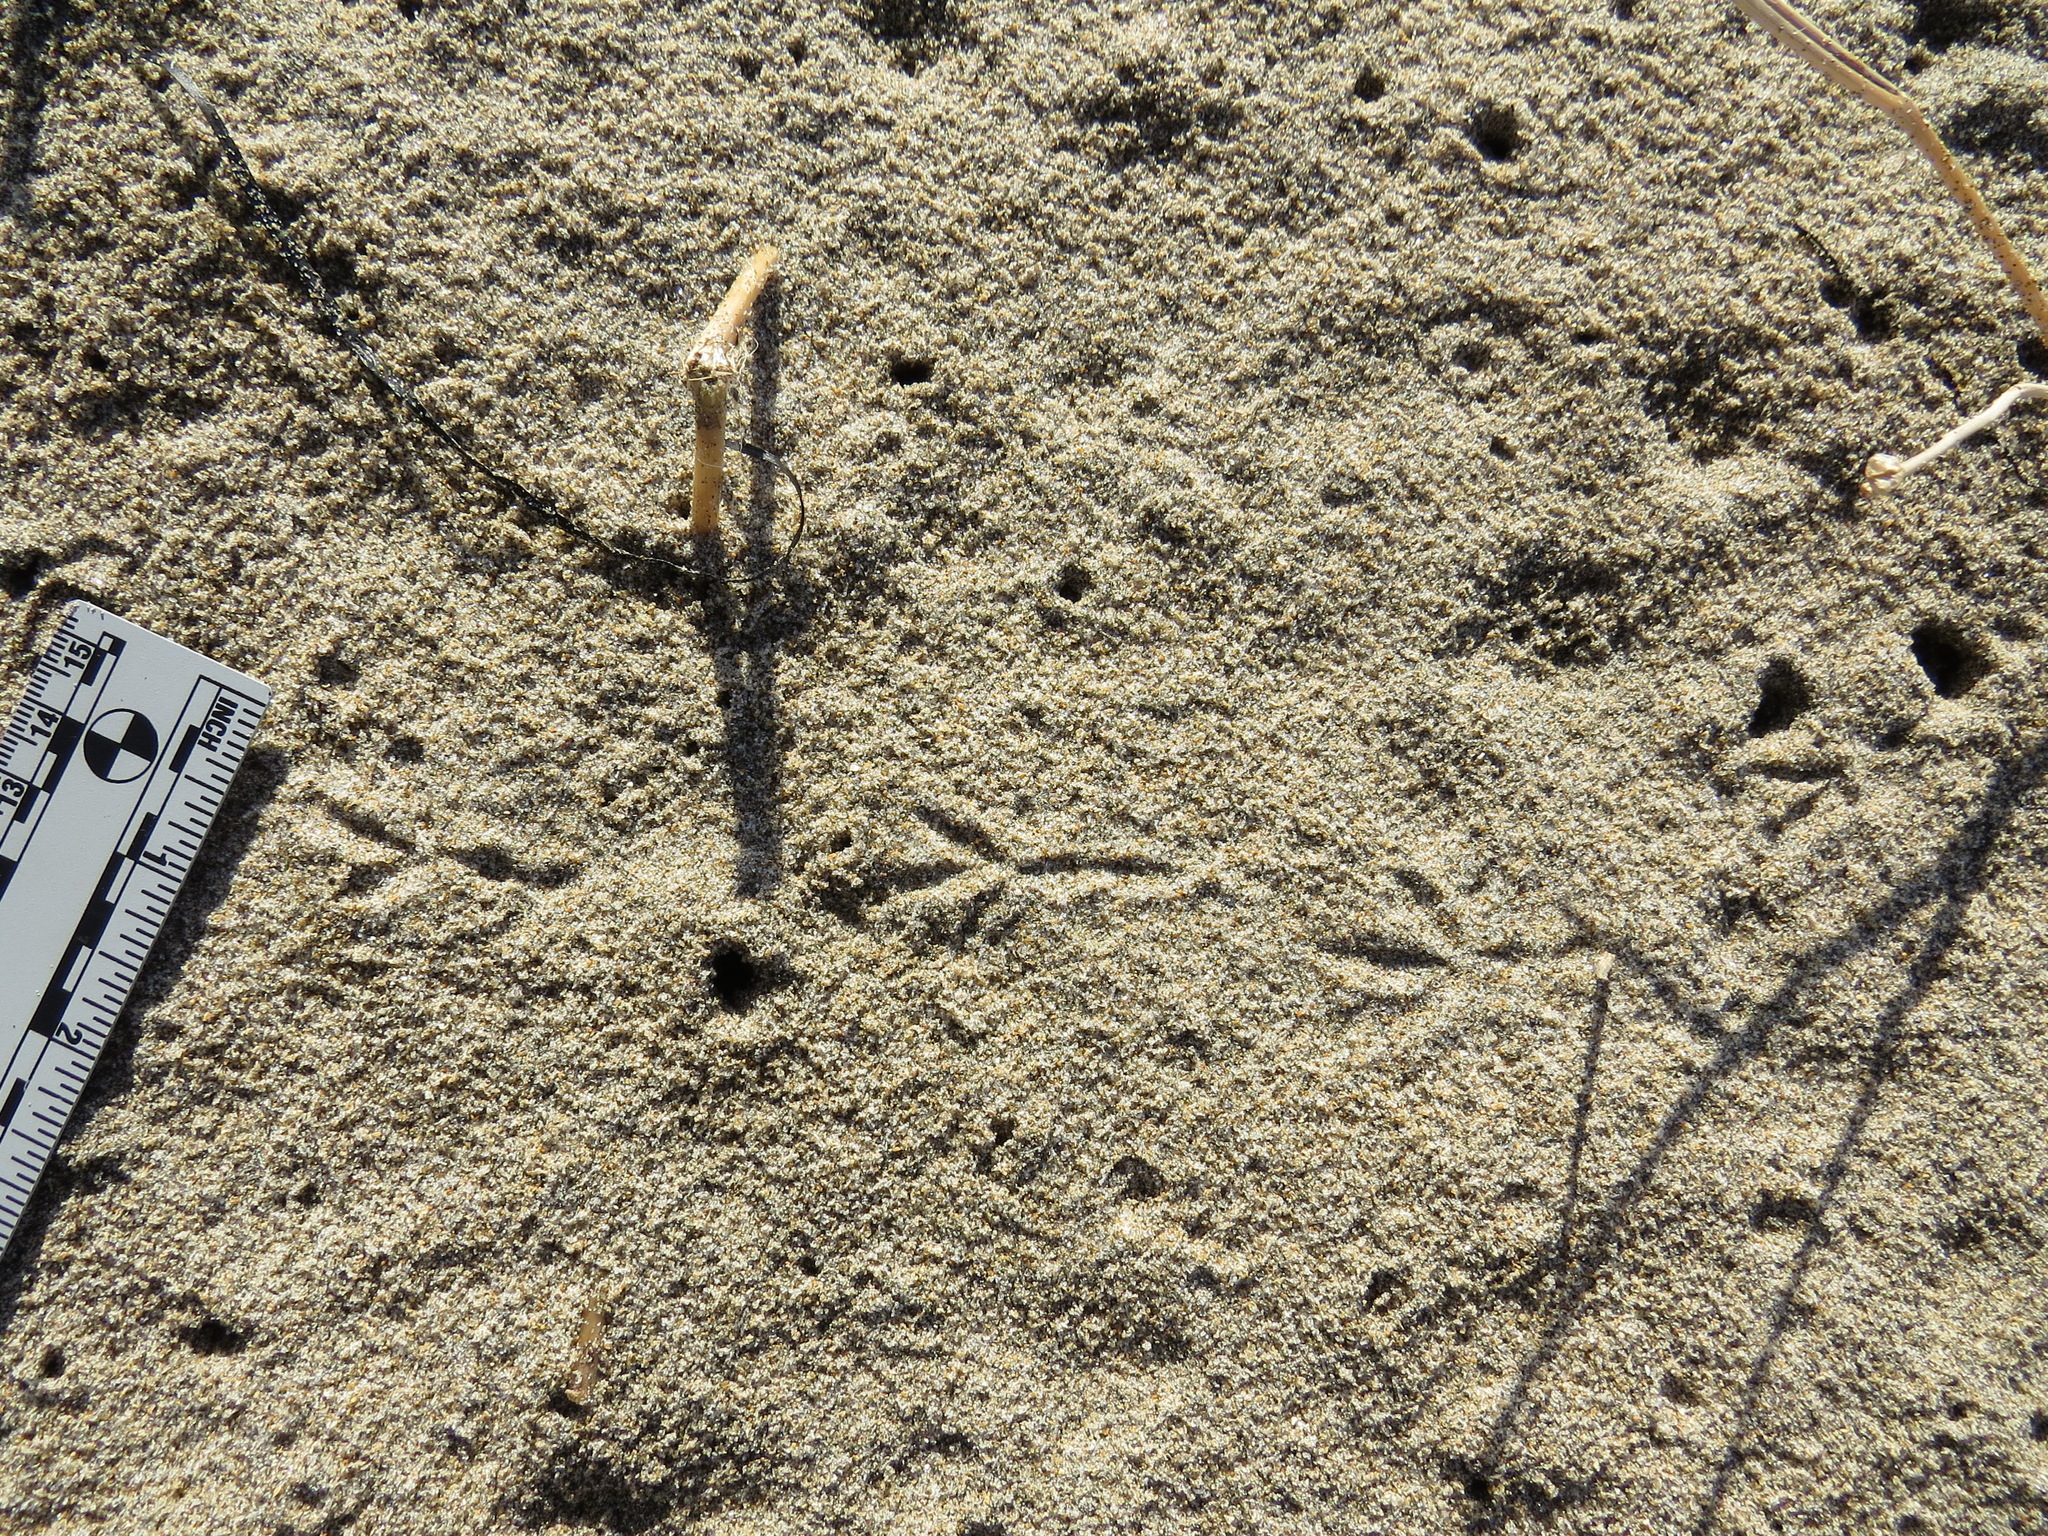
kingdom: Animalia
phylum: Chordata
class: Aves
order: Passeriformes
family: Motacillidae
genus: Anthus
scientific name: Anthus rubescens
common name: Buff-bellied pipit
